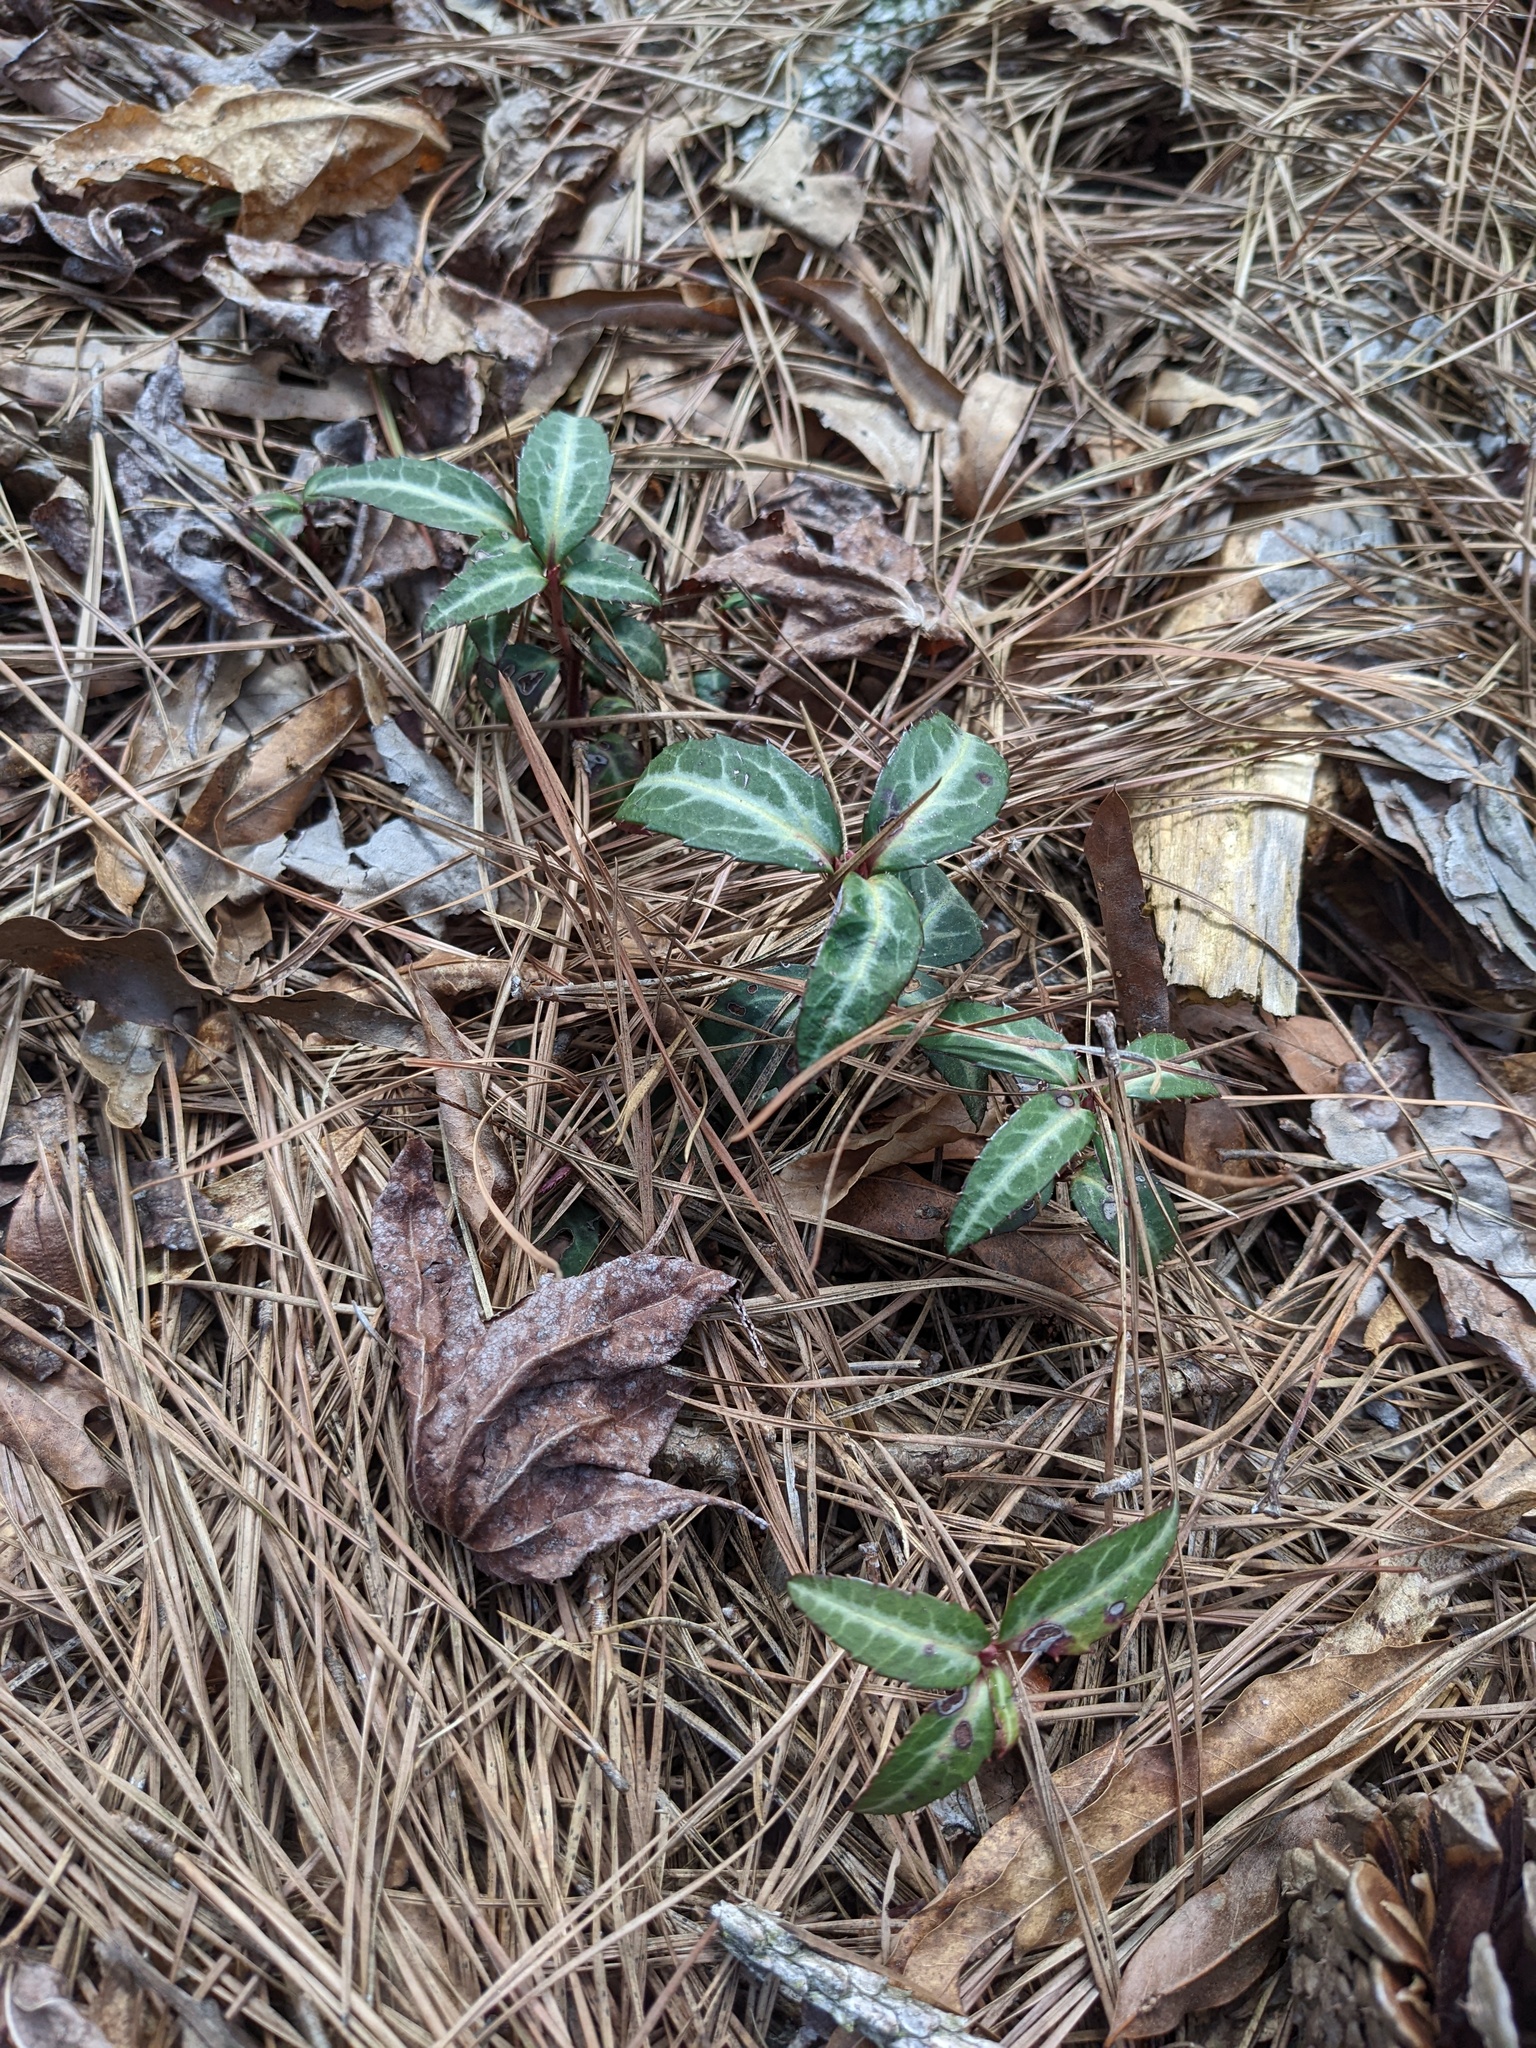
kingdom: Plantae
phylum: Tracheophyta
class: Magnoliopsida
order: Ericales
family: Ericaceae
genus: Chimaphila
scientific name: Chimaphila maculata
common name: Spotted pipsissewa
